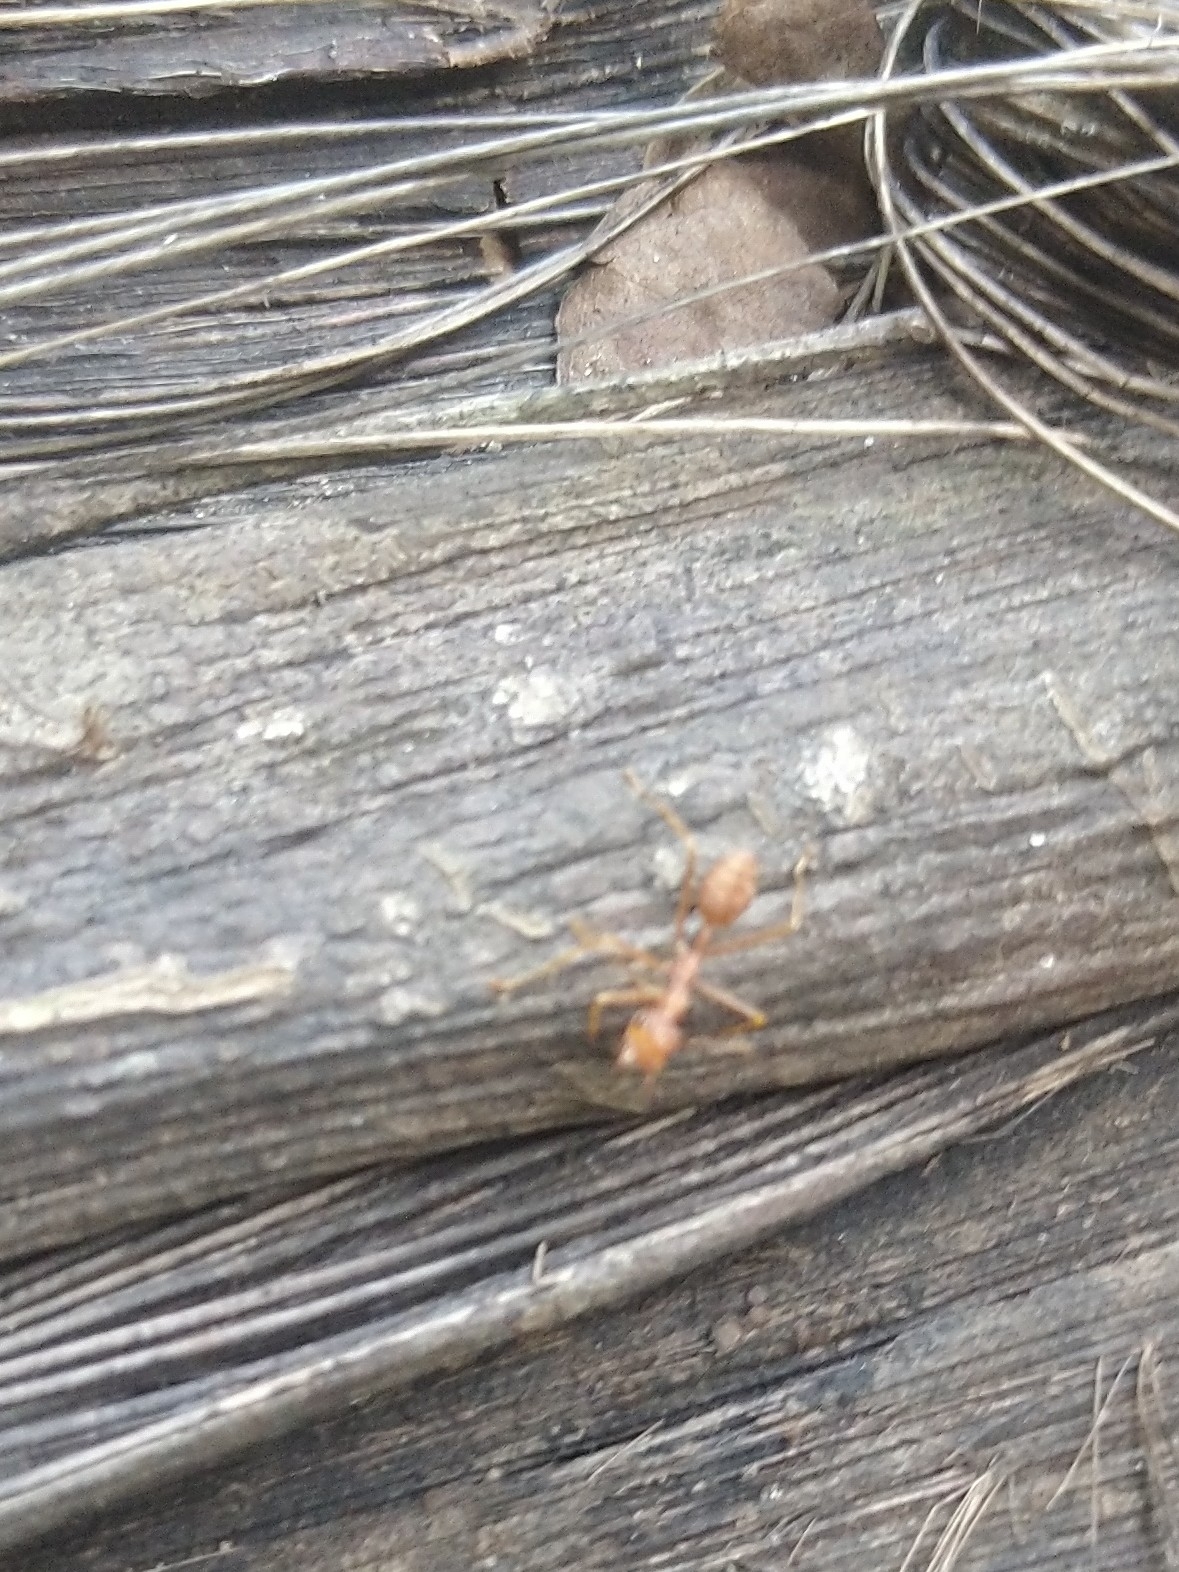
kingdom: Animalia
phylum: Arthropoda
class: Insecta
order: Hymenoptera
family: Formicidae
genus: Oecophylla
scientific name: Oecophylla smaragdina
